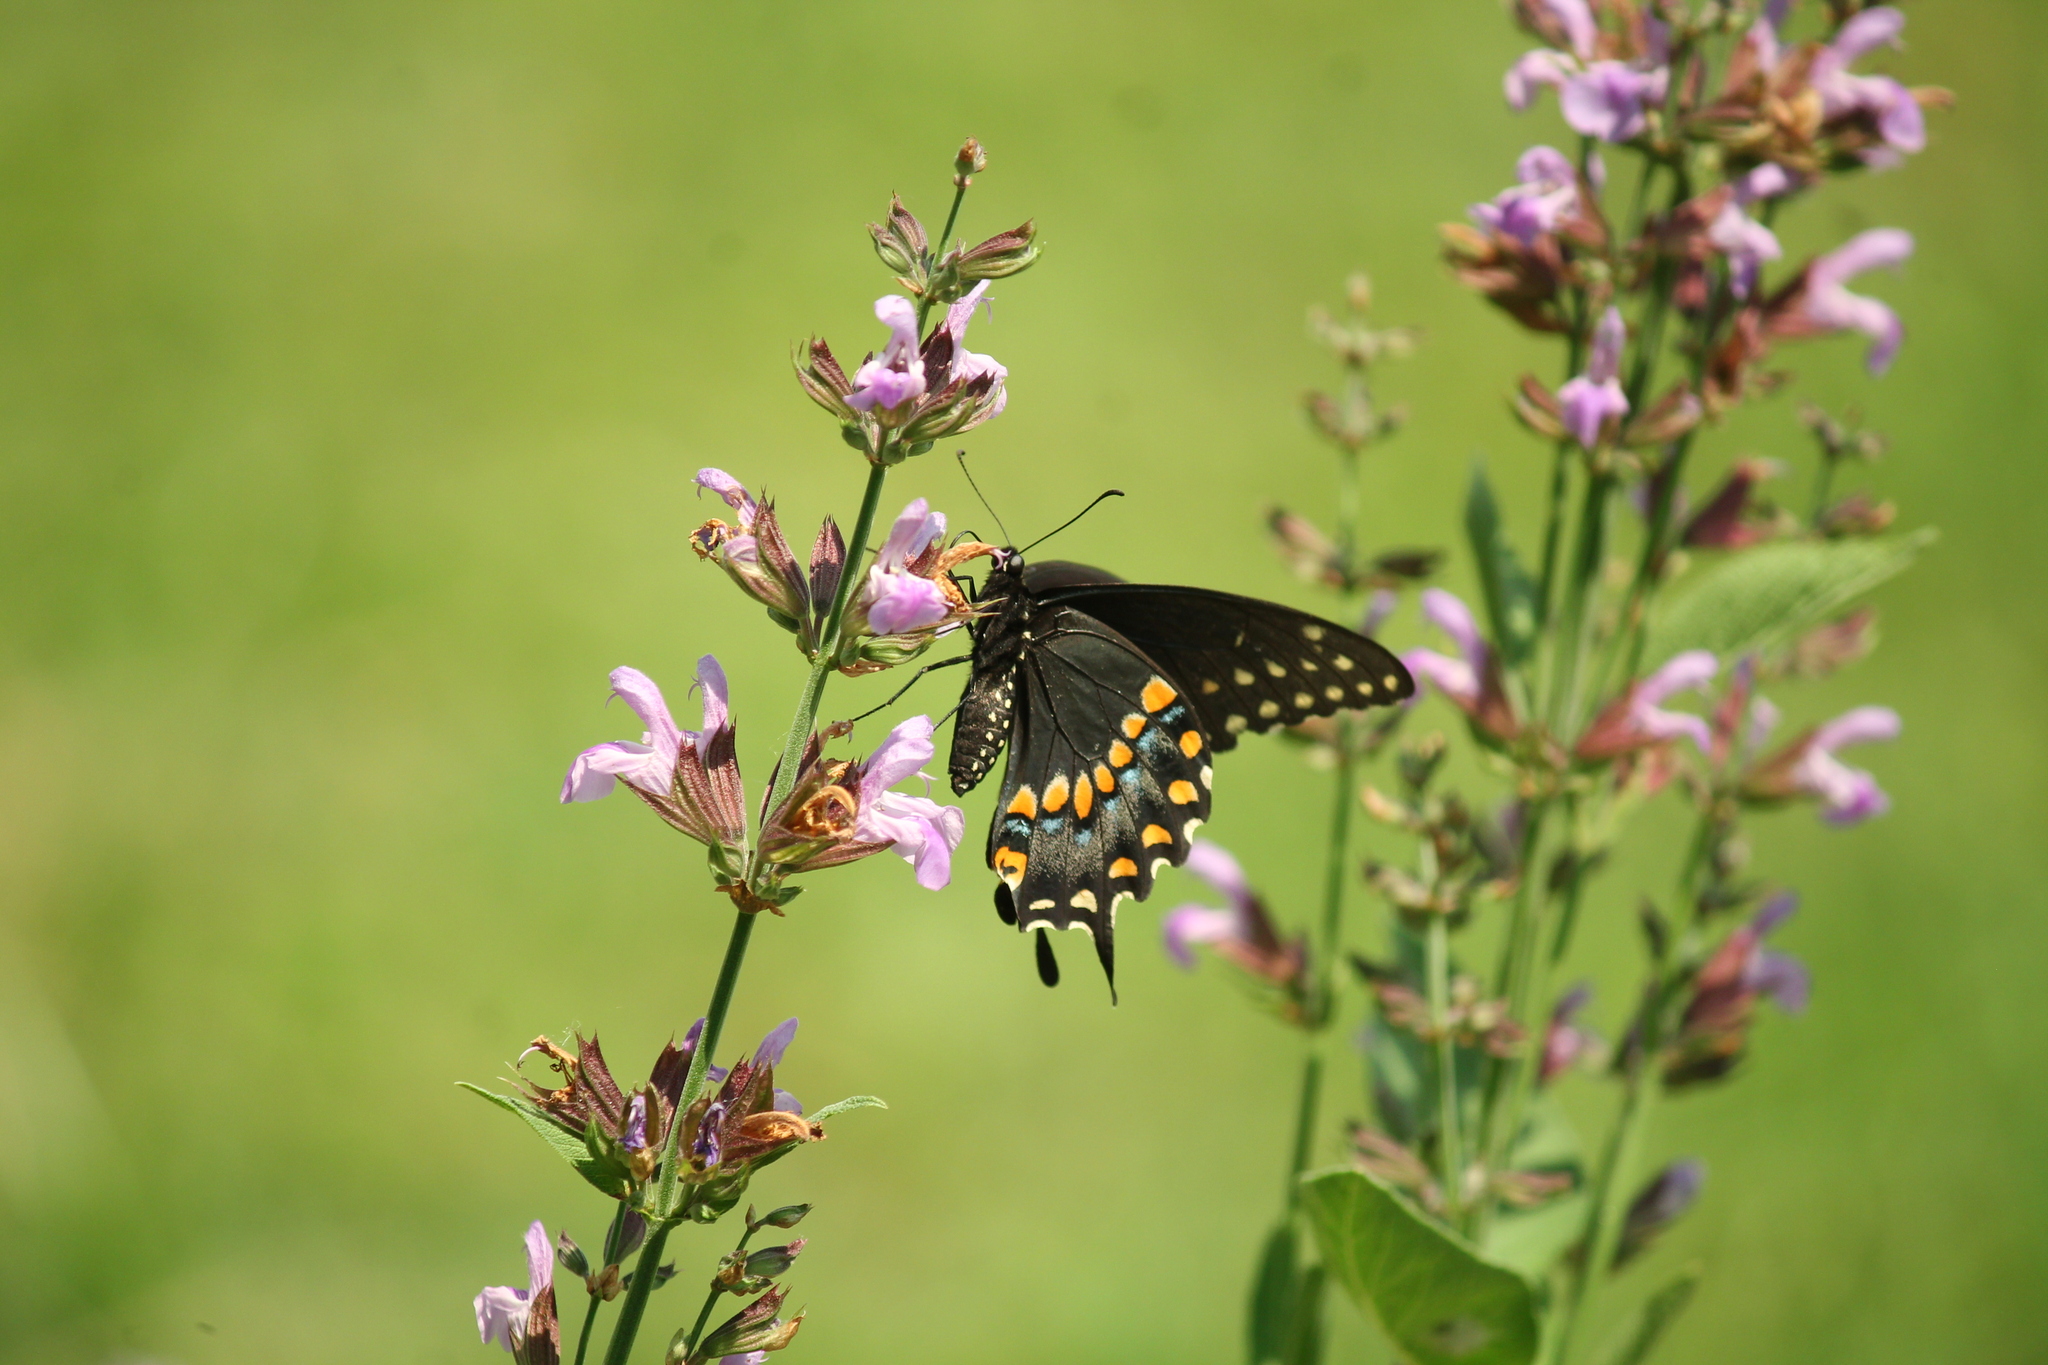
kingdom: Animalia
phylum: Arthropoda
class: Insecta
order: Lepidoptera
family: Papilionidae
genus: Papilio
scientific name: Papilio polyxenes
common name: Black swallowtail
